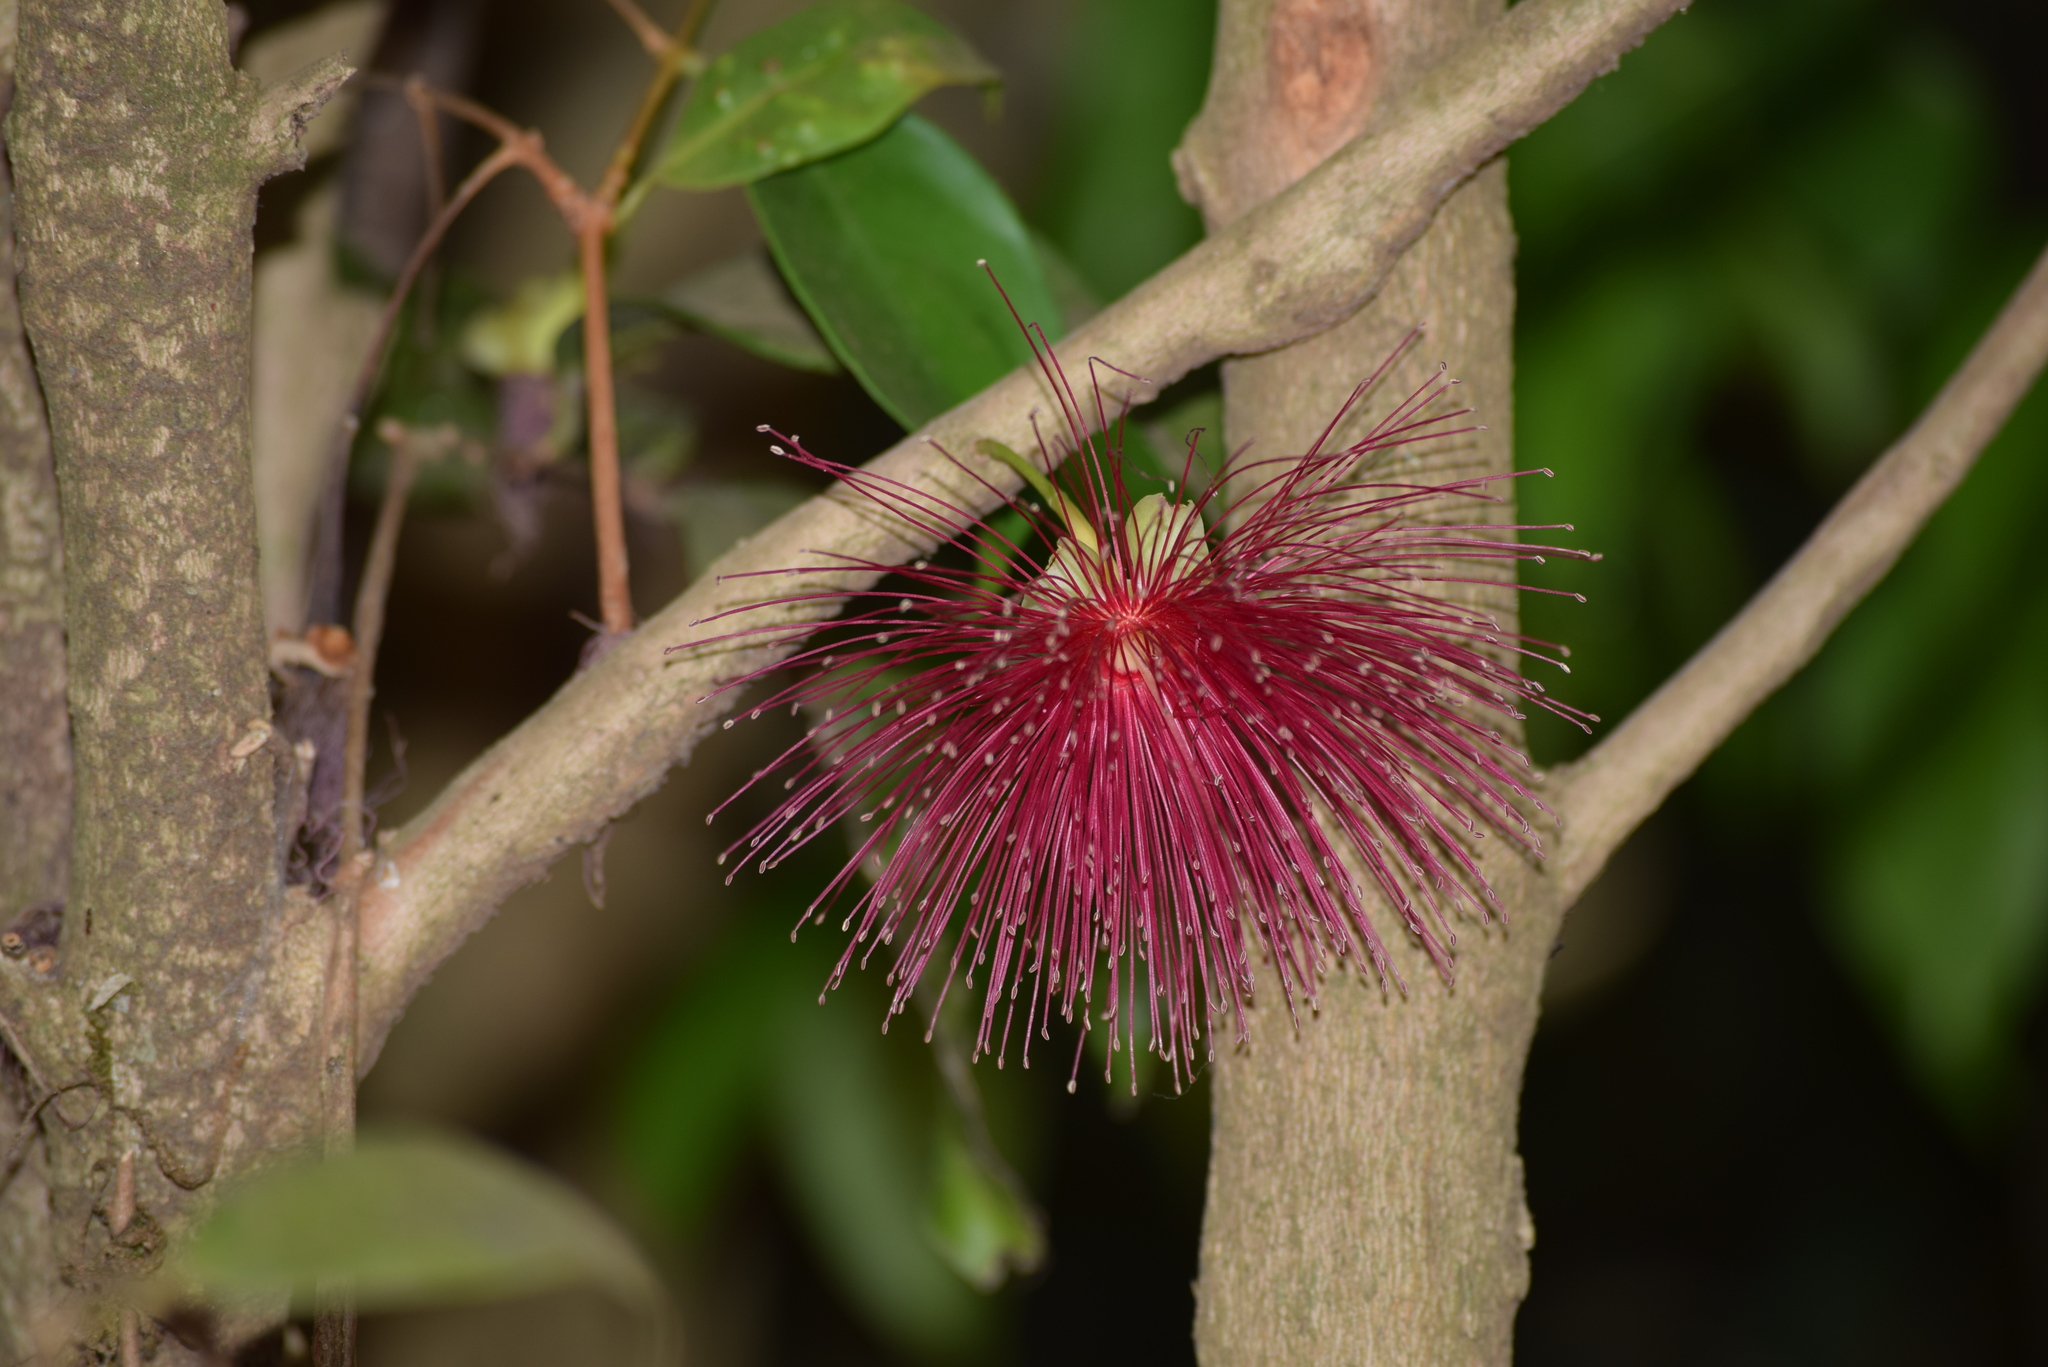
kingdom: Plantae
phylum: Tracheophyta
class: Magnoliopsida
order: Myrtales
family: Myrtaceae
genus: Syzygium
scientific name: Syzygium laetum
